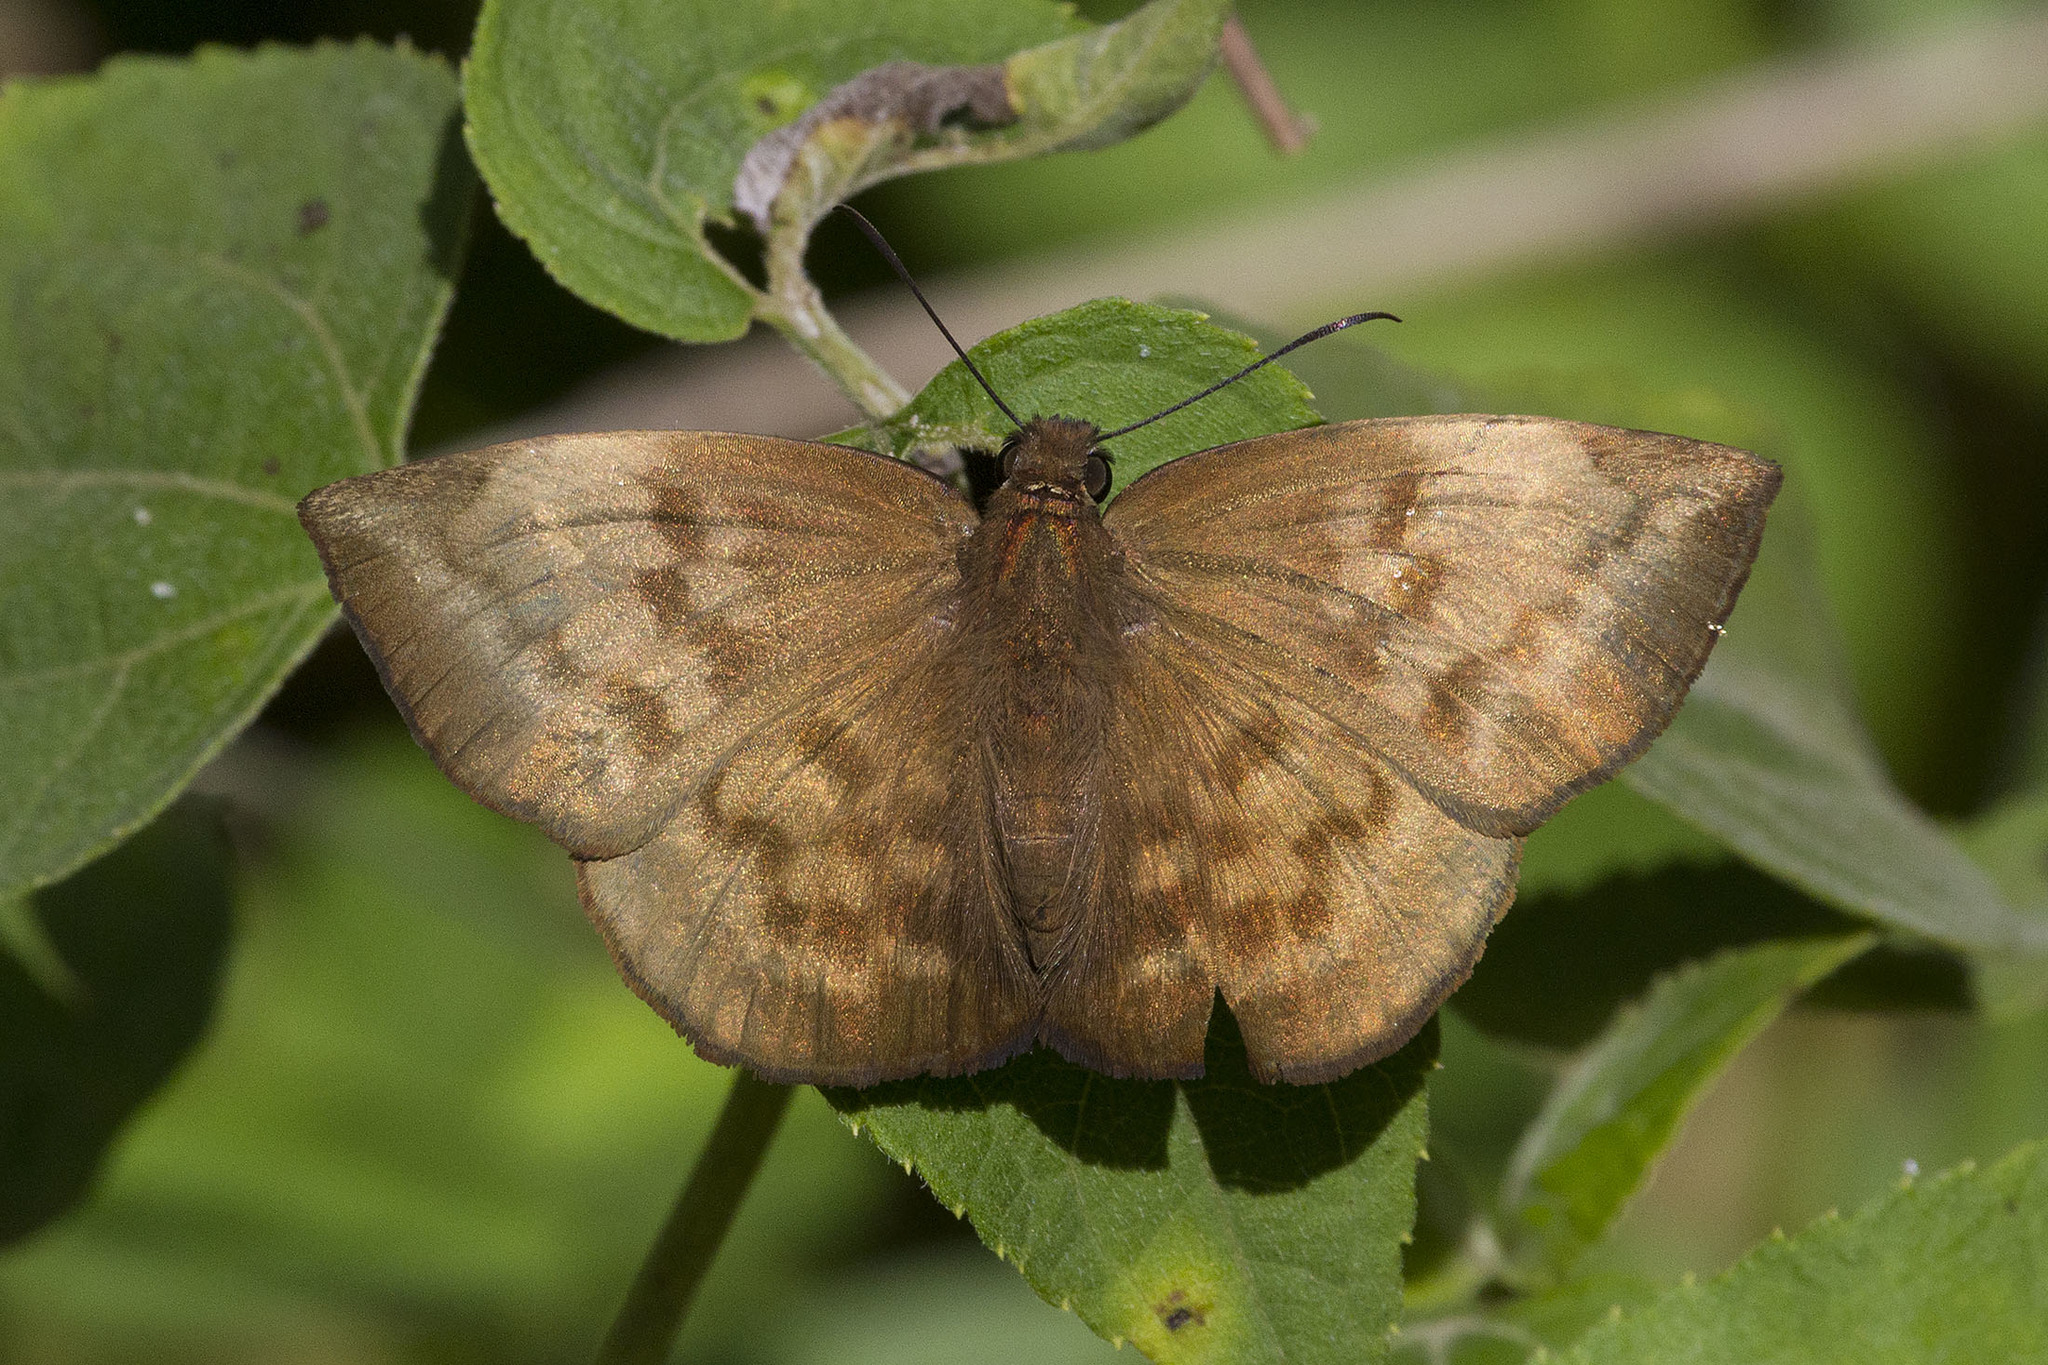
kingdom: Animalia
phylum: Arthropoda
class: Insecta
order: Lepidoptera
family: Hesperiidae
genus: Achlyodes
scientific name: Achlyodes pallida
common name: Pale sicklewing
